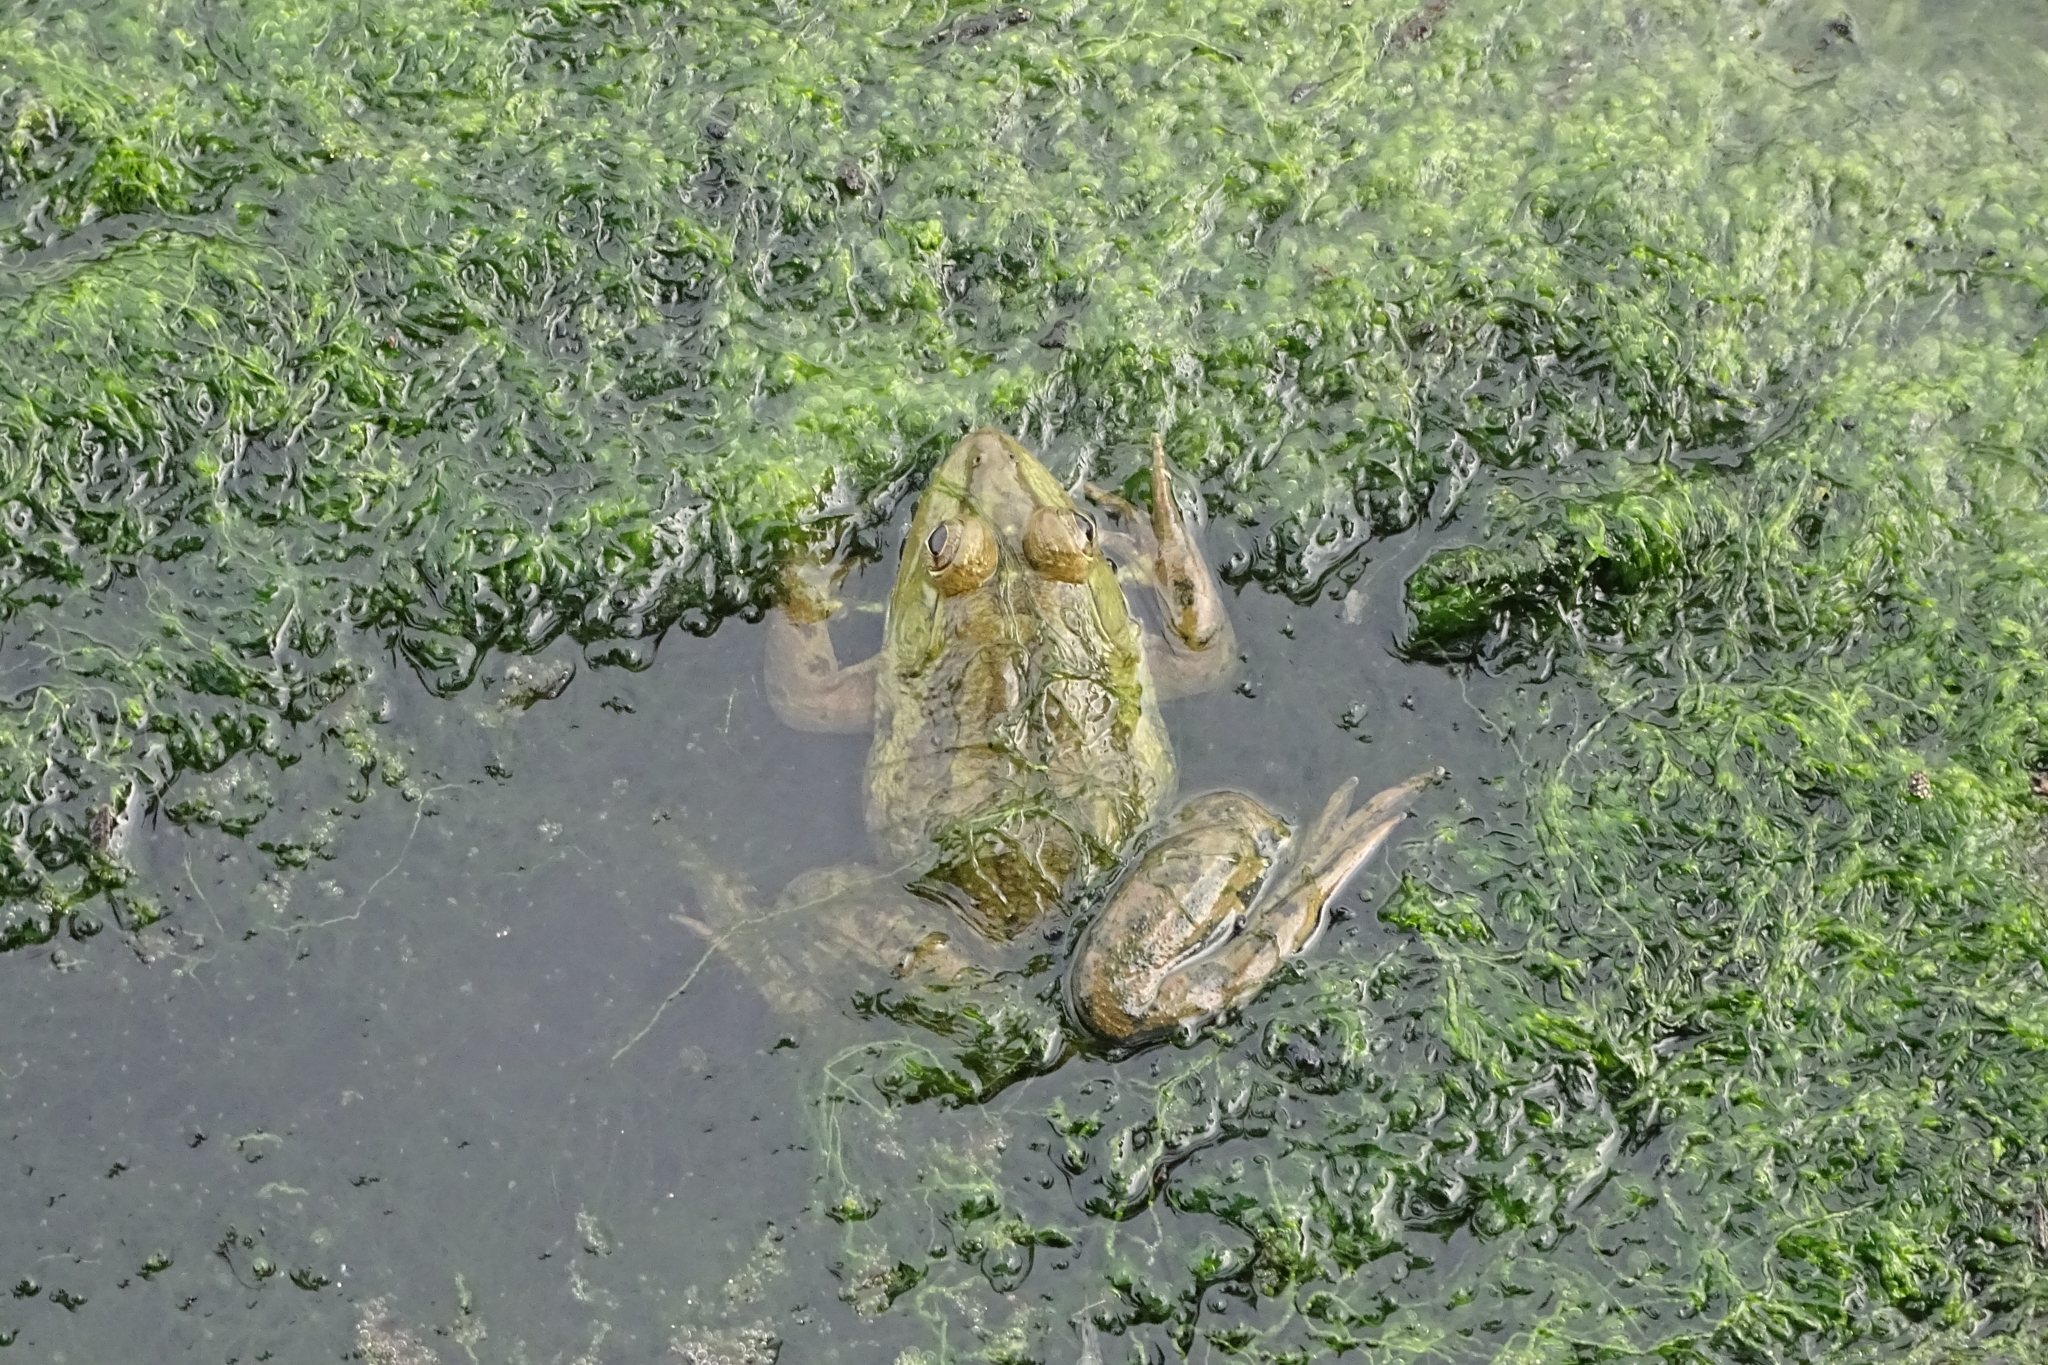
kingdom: Animalia
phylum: Chordata
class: Amphibia
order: Anura
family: Dicroglossidae
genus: Hoplobatrachus
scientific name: Hoplobatrachus tigerinus
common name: Indian bullfrog
